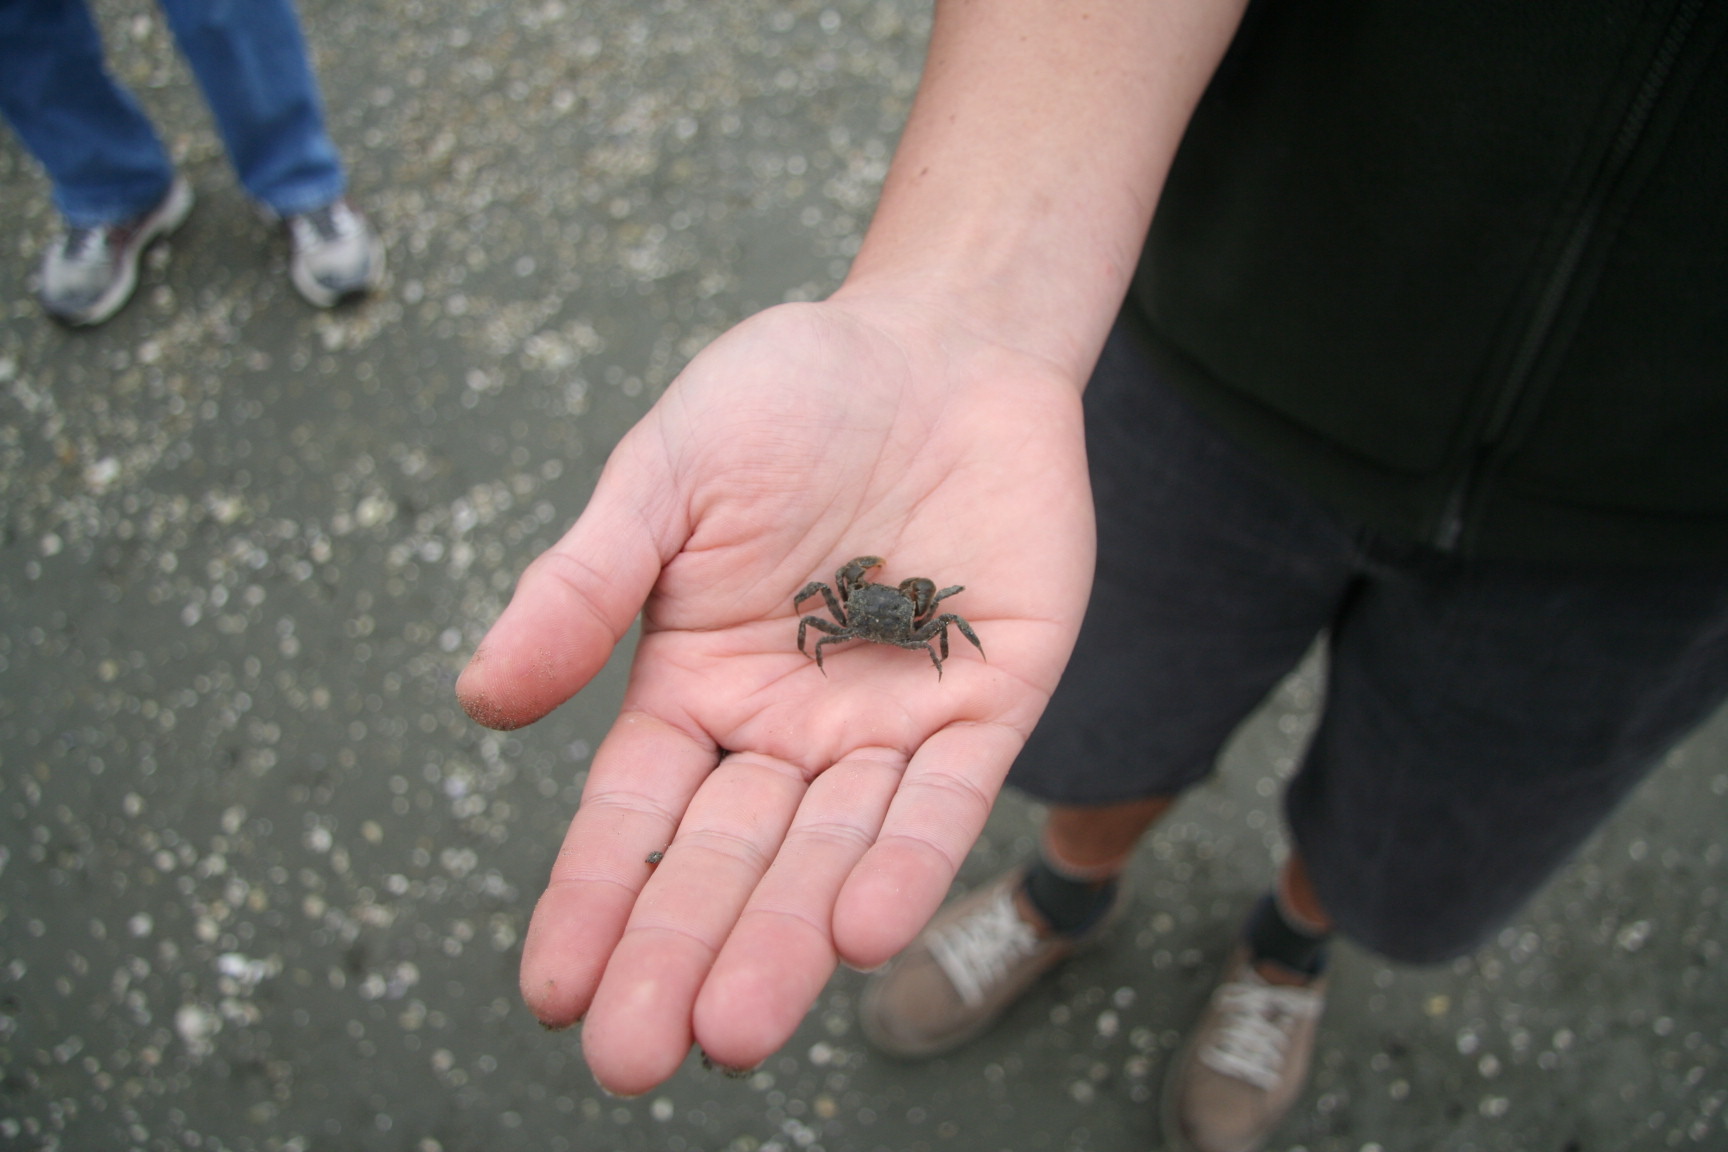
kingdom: Animalia
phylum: Arthropoda
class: Malacostraca
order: Decapoda
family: Varunidae
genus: Austrohelice
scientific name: Austrohelice crassa
